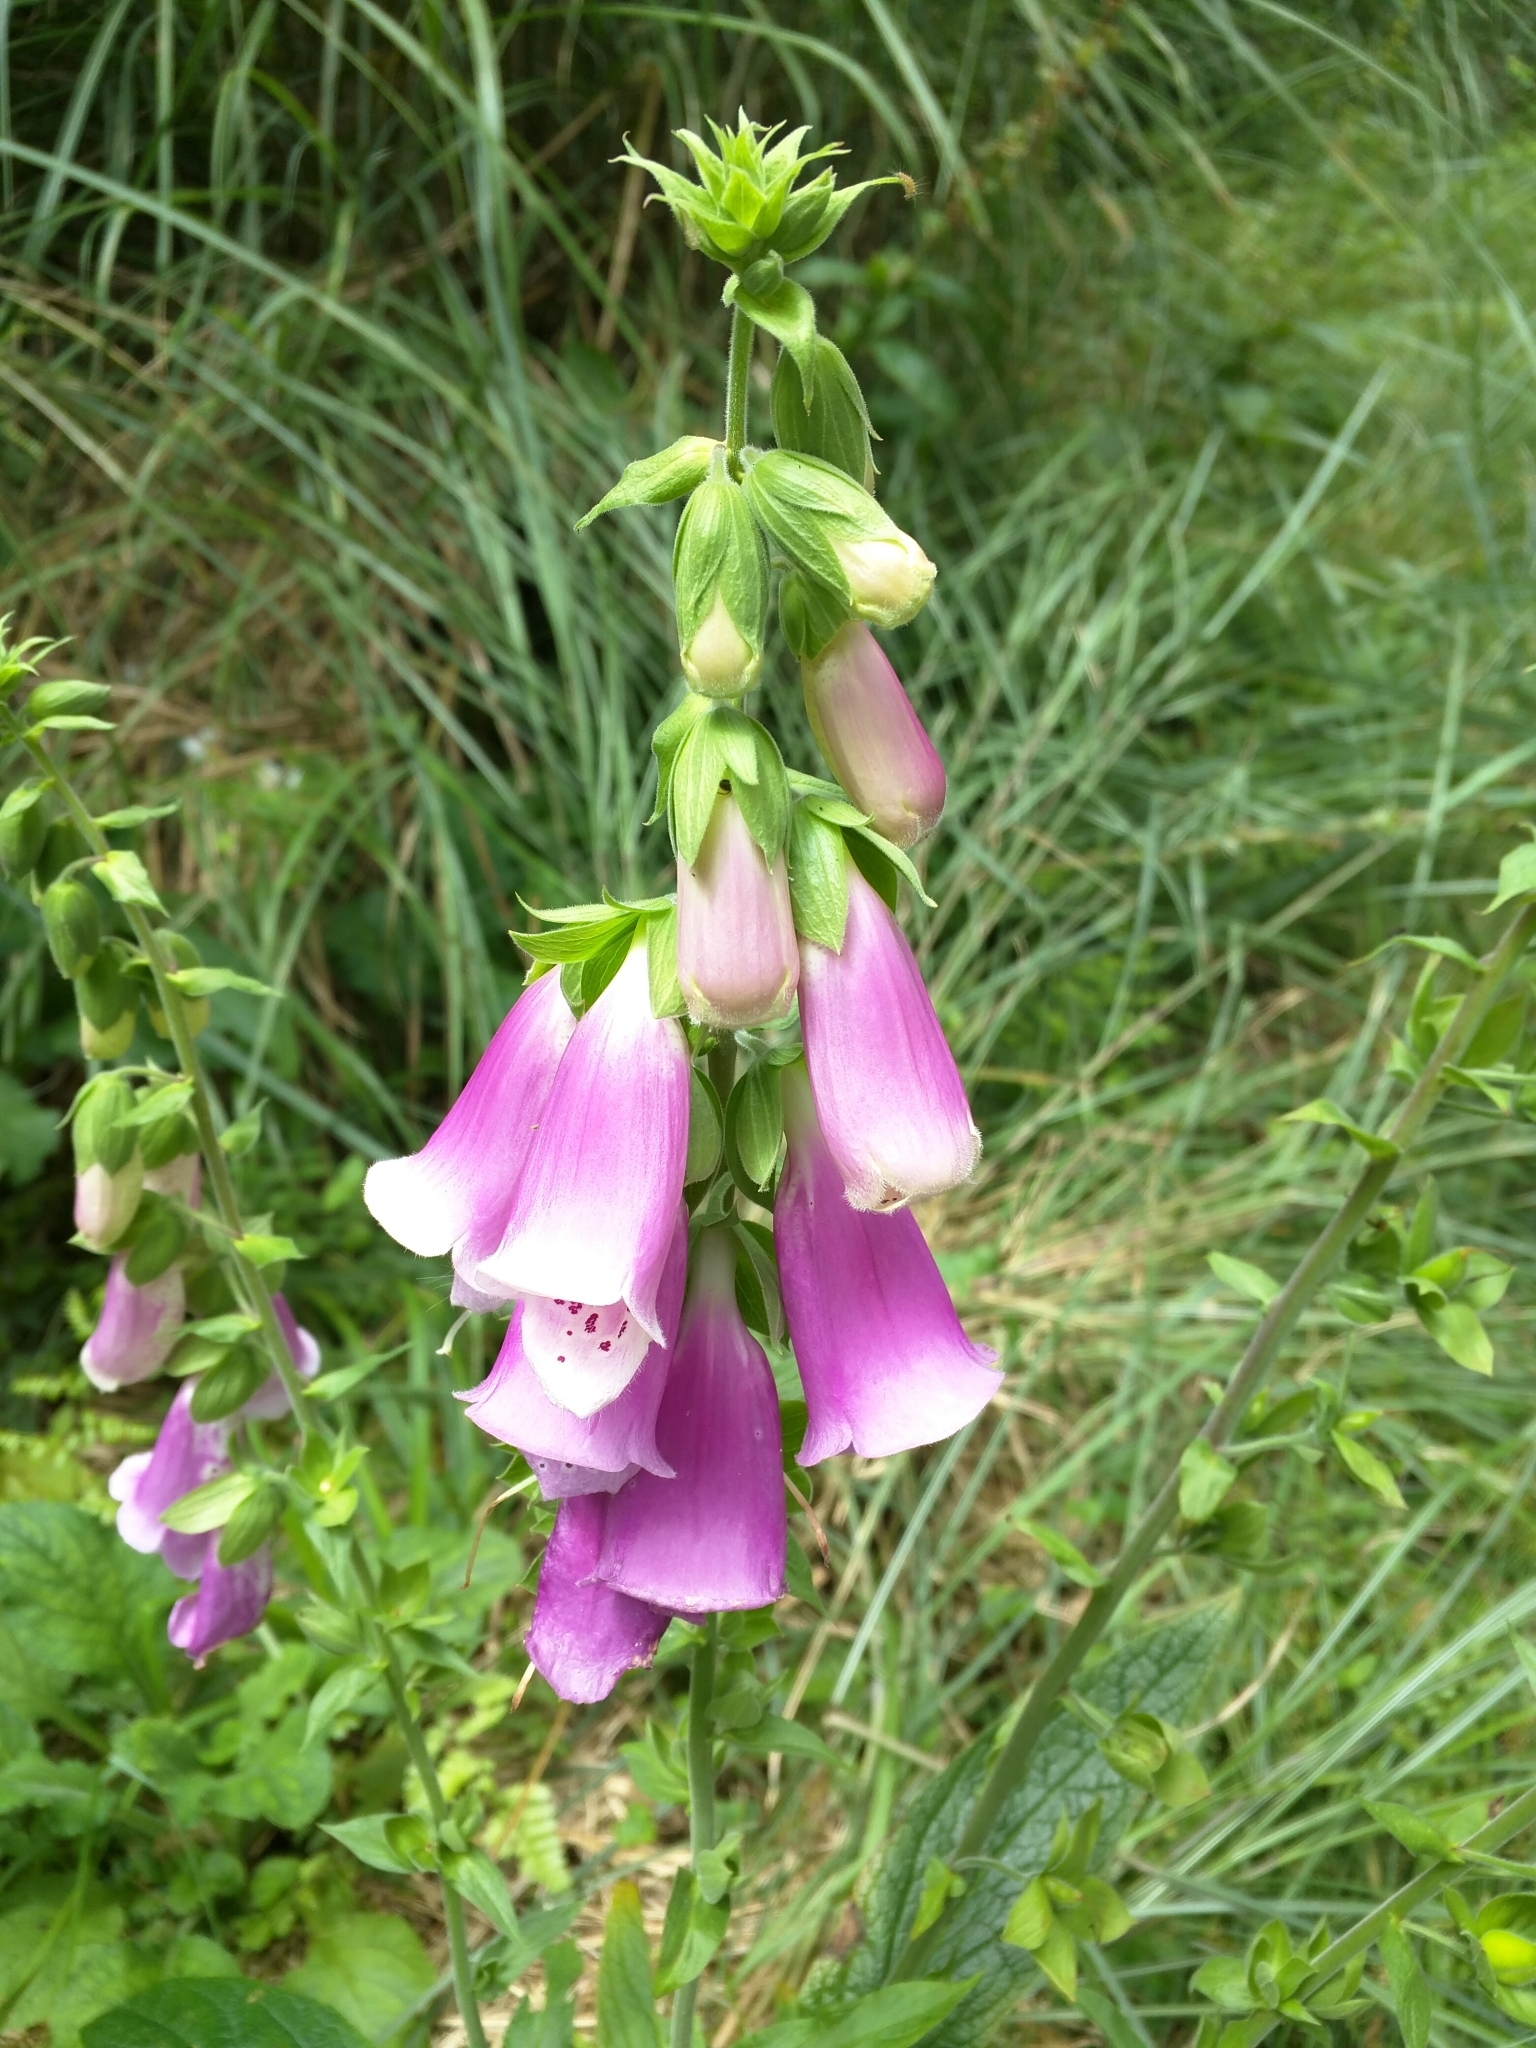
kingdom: Plantae
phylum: Tracheophyta
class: Magnoliopsida
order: Lamiales
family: Plantaginaceae
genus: Digitalis
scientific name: Digitalis purpurea
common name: Foxglove
